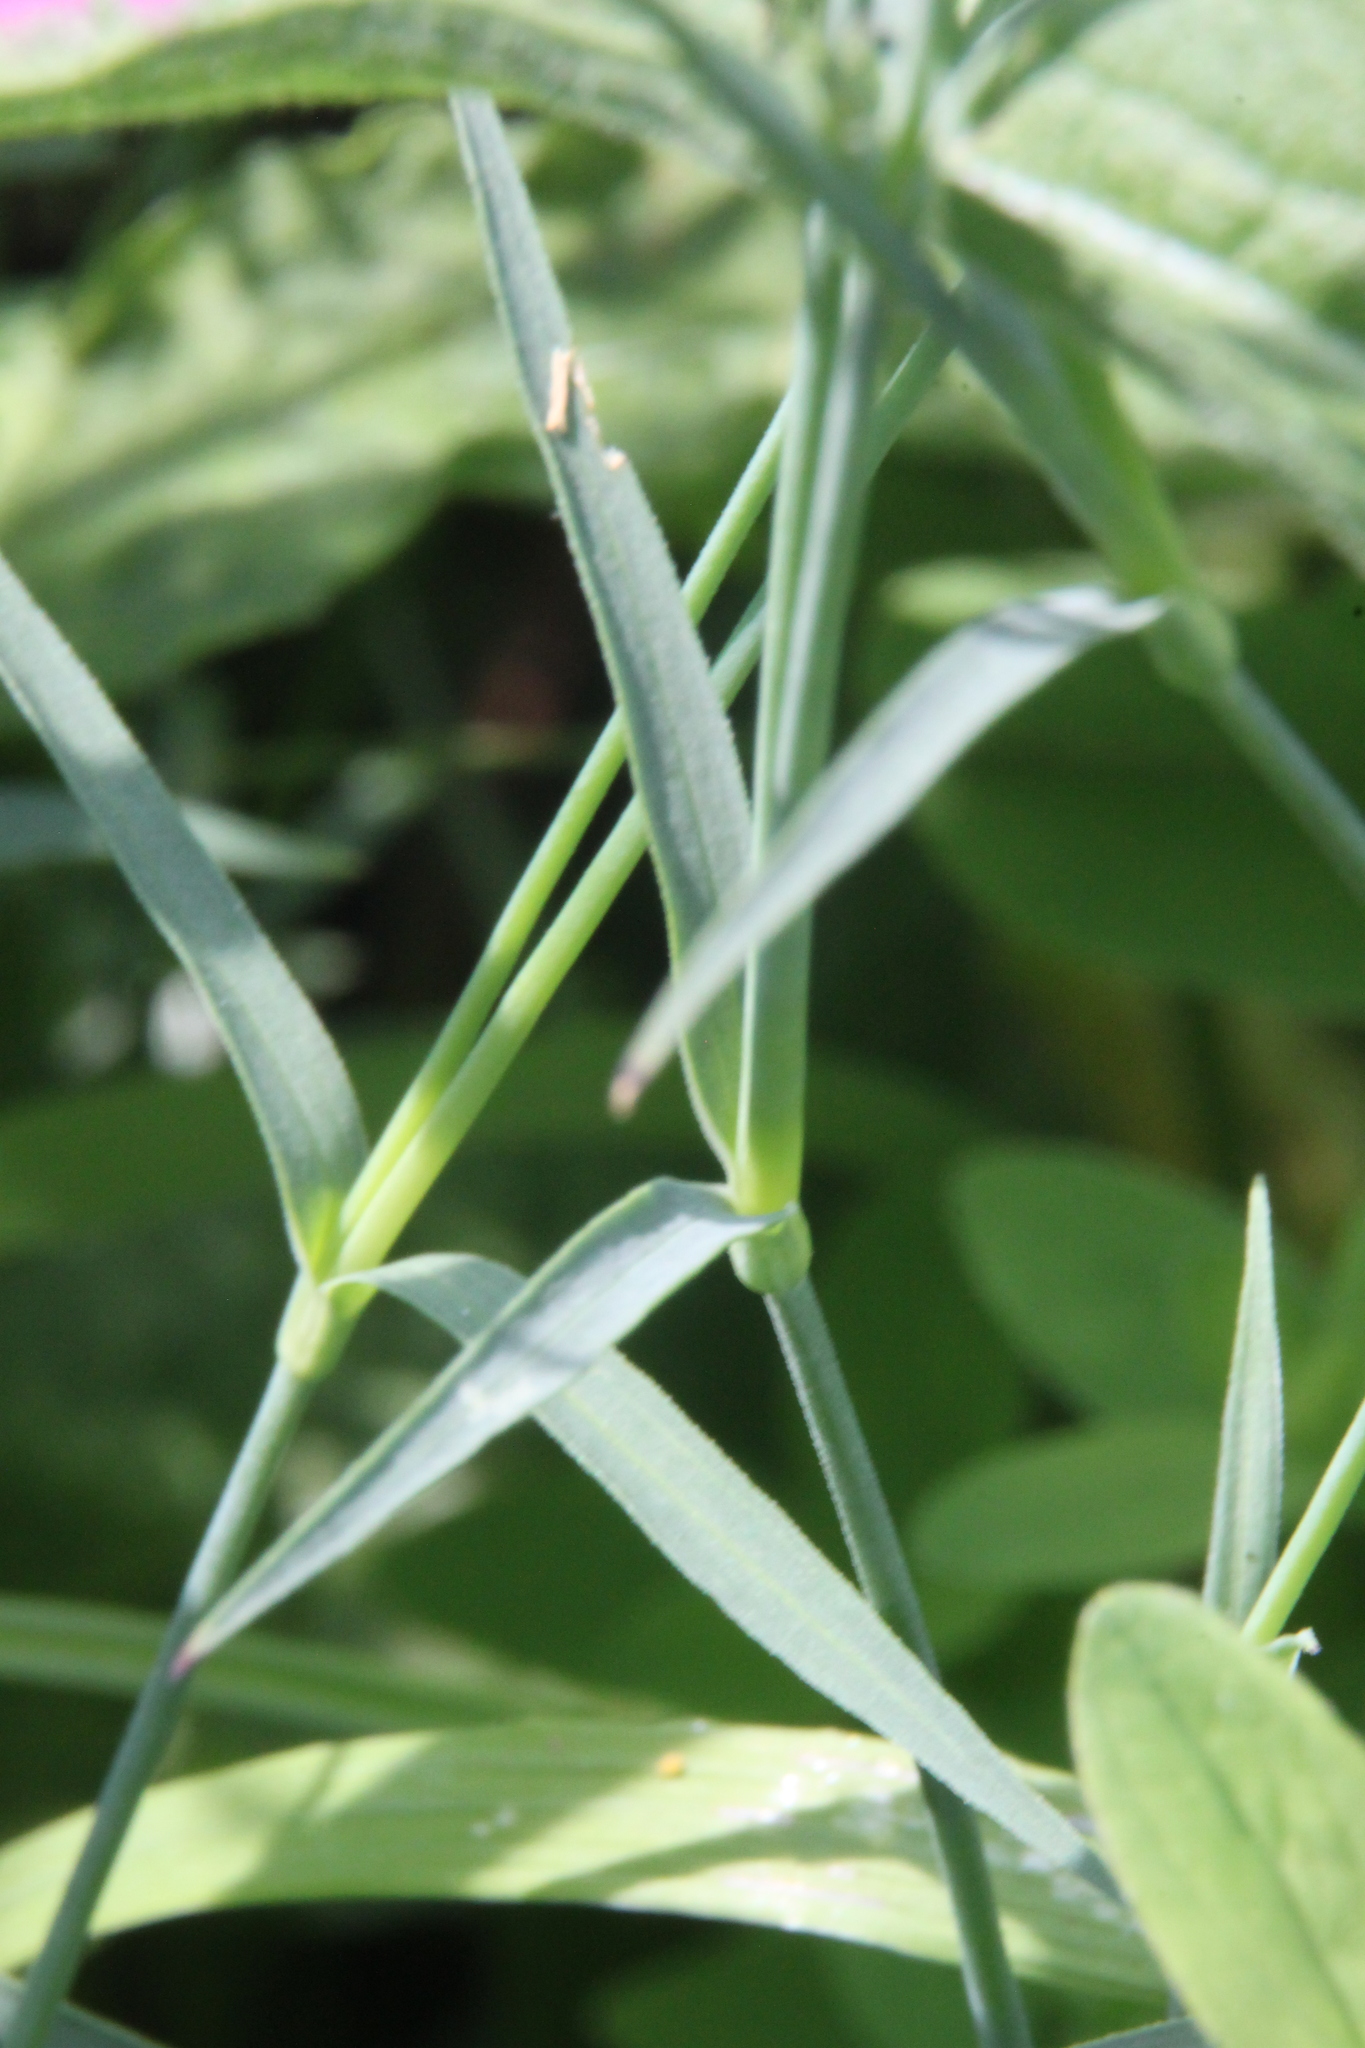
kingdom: Plantae
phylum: Tracheophyta
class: Magnoliopsida
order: Caryophyllales
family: Caryophyllaceae
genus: Dianthus
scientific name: Dianthus chinensis
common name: Rainbow pink
